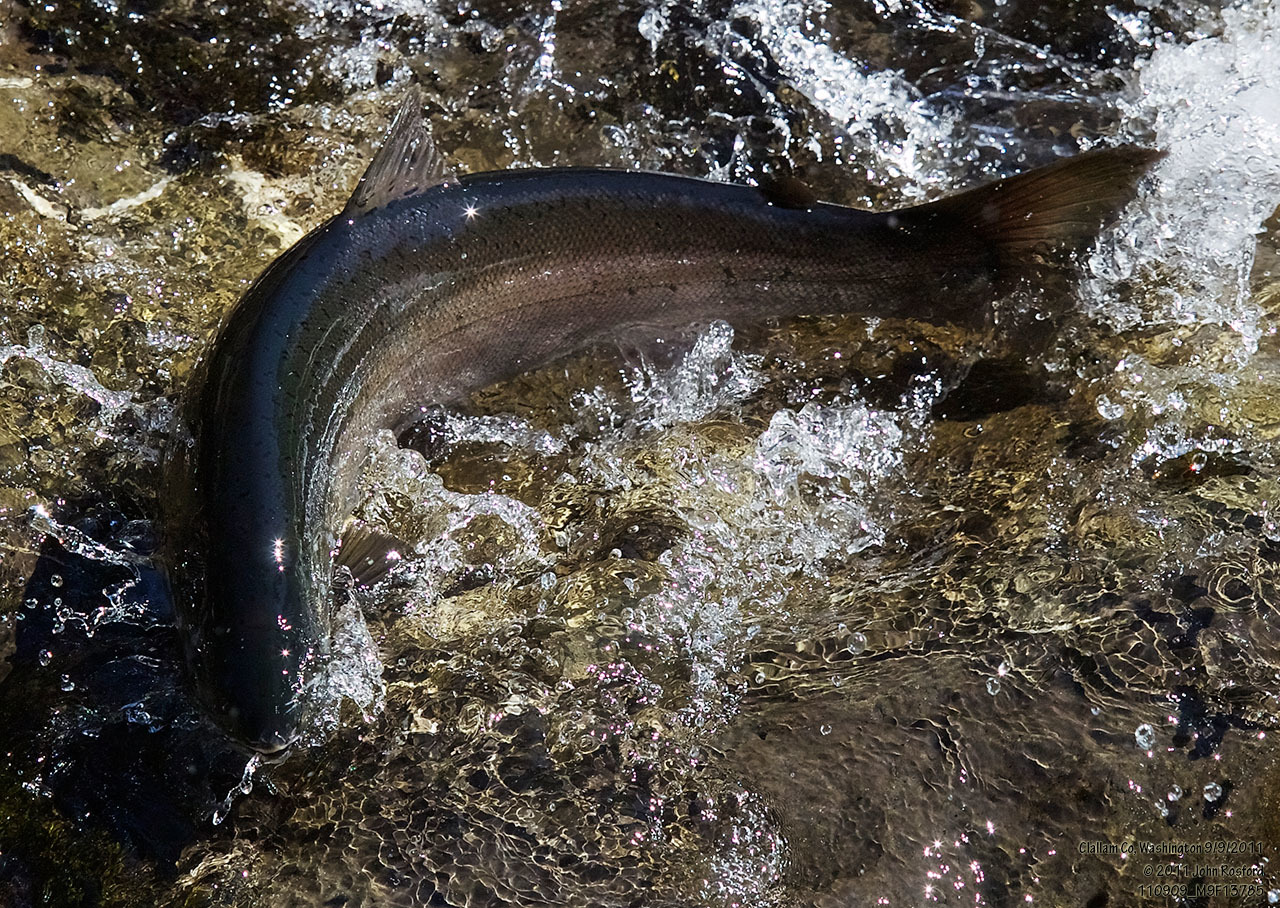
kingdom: Animalia
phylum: Chordata
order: Salmoniformes
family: Salmonidae
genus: Oncorhynchus
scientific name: Oncorhynchus mykiss
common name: Rainbow trout
